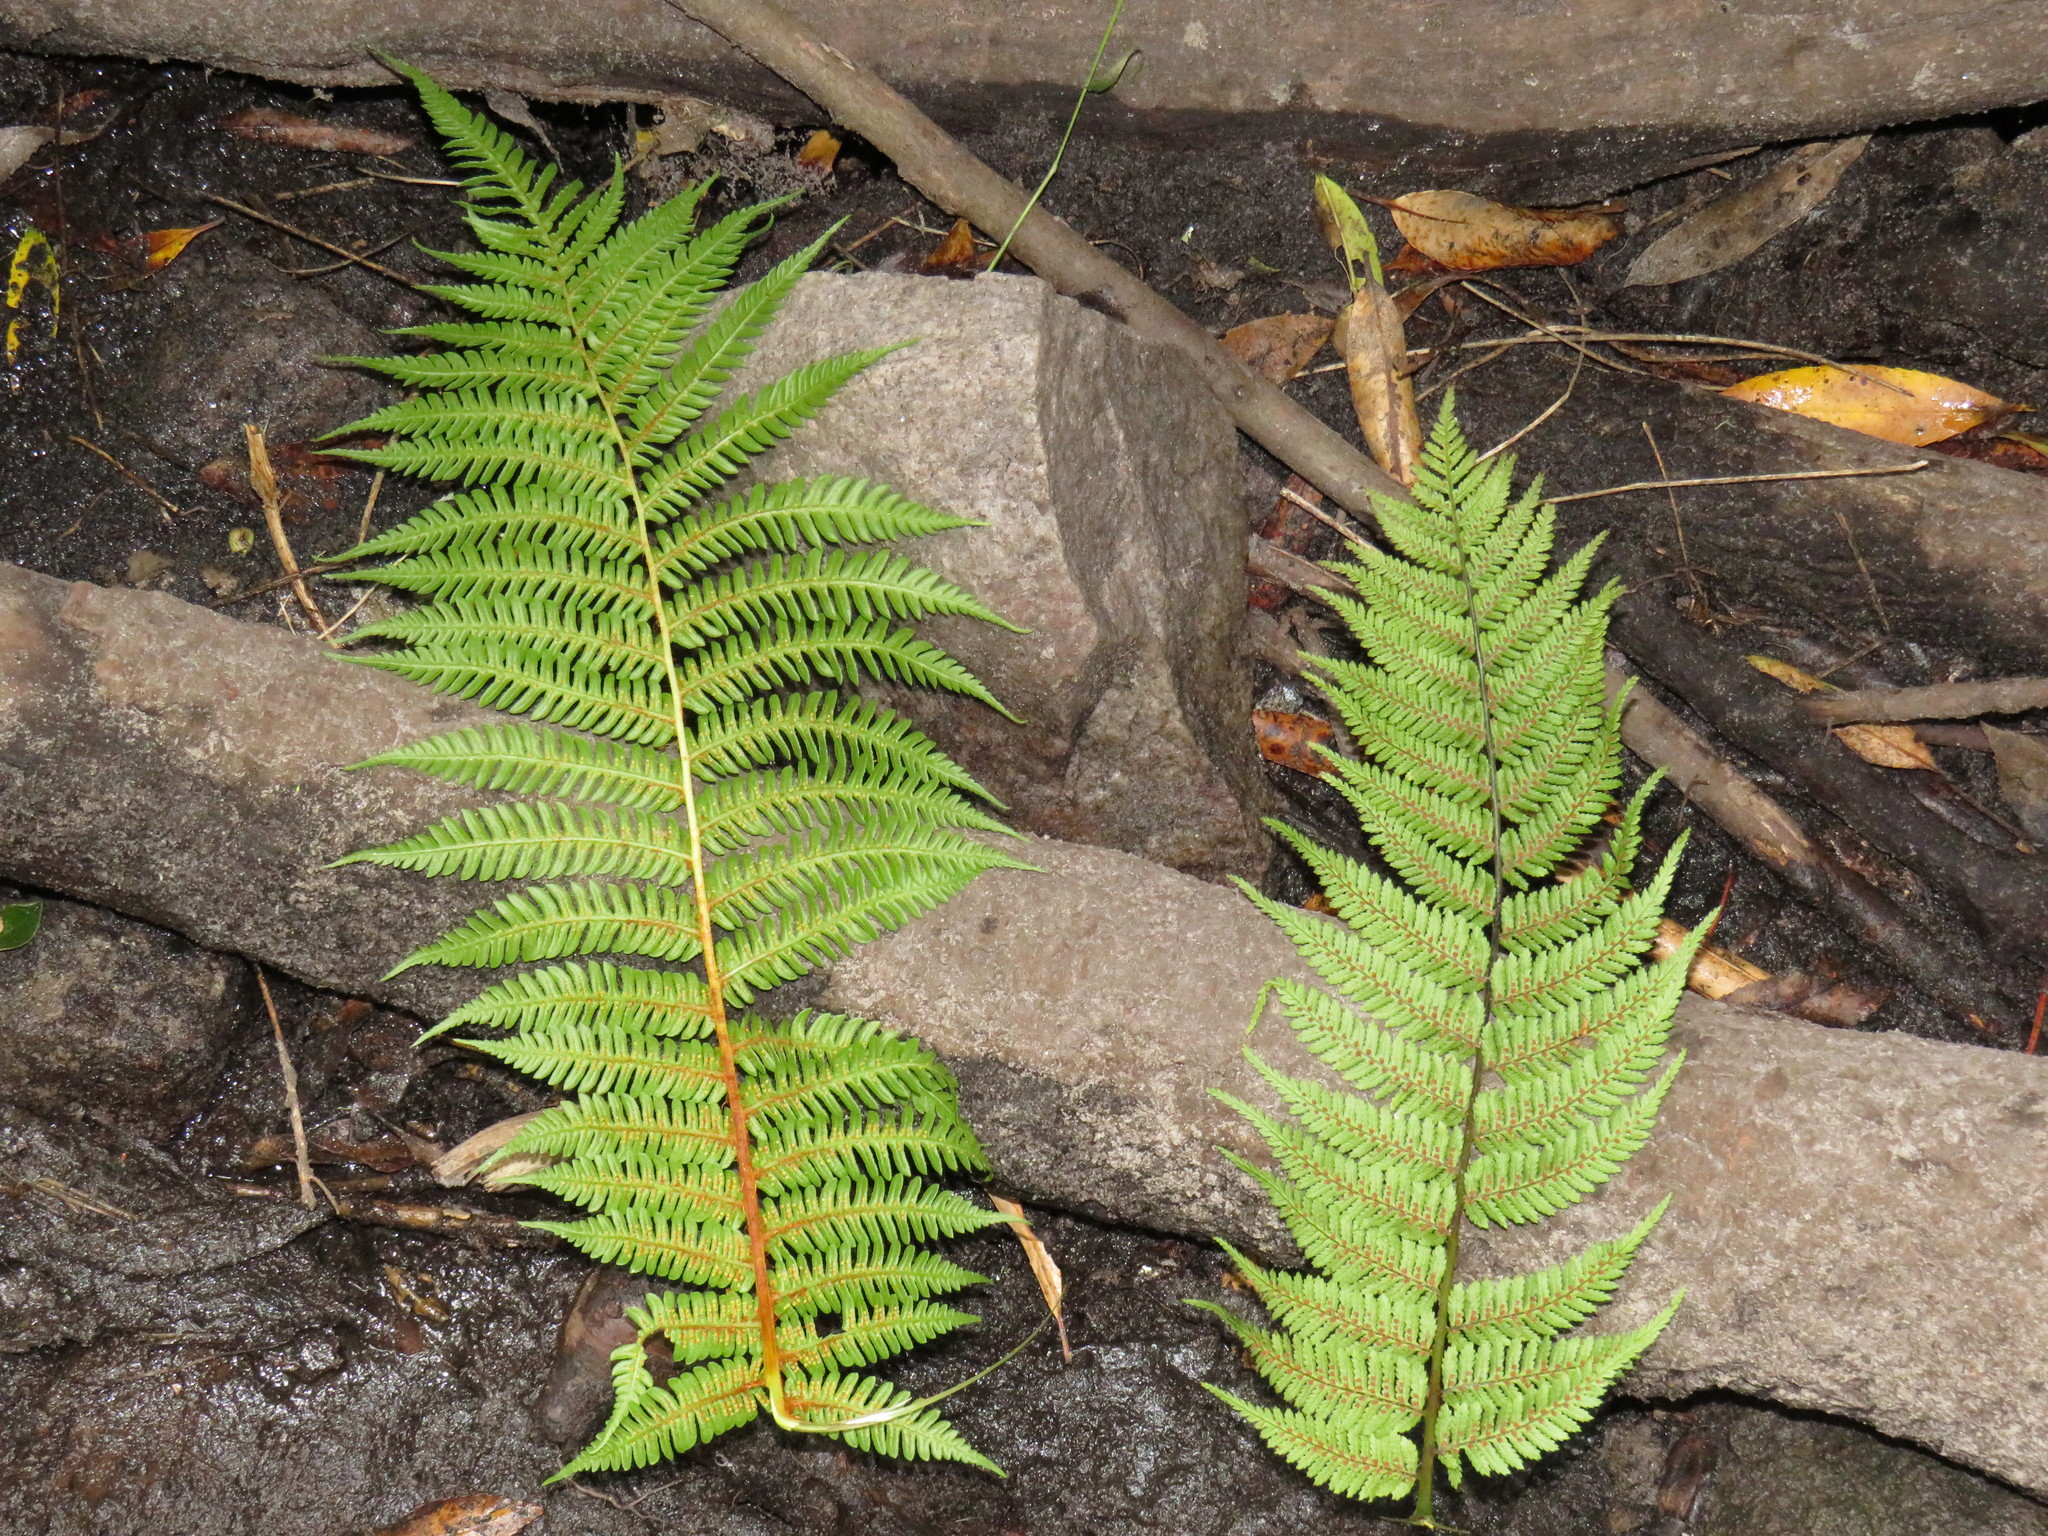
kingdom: Plantae
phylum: Tracheophyta
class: Polypodiopsida
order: Cyatheales
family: Cyatheaceae
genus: Sphaeropteris
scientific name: Sphaeropteris cooperi
